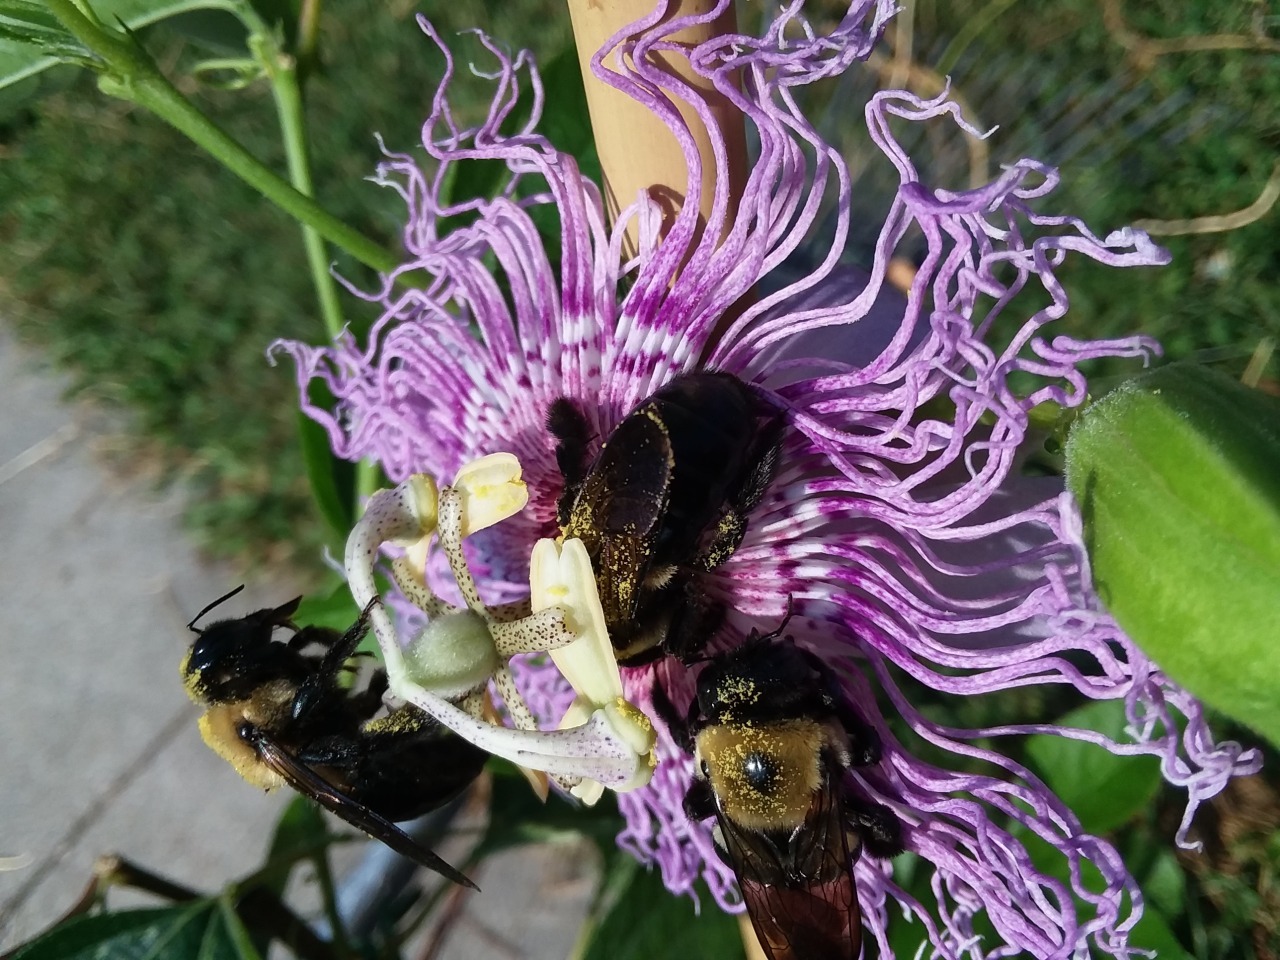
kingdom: Animalia
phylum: Arthropoda
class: Insecta
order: Hymenoptera
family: Apidae
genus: Xylocopa
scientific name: Xylocopa virginica
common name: Carpenter bee
